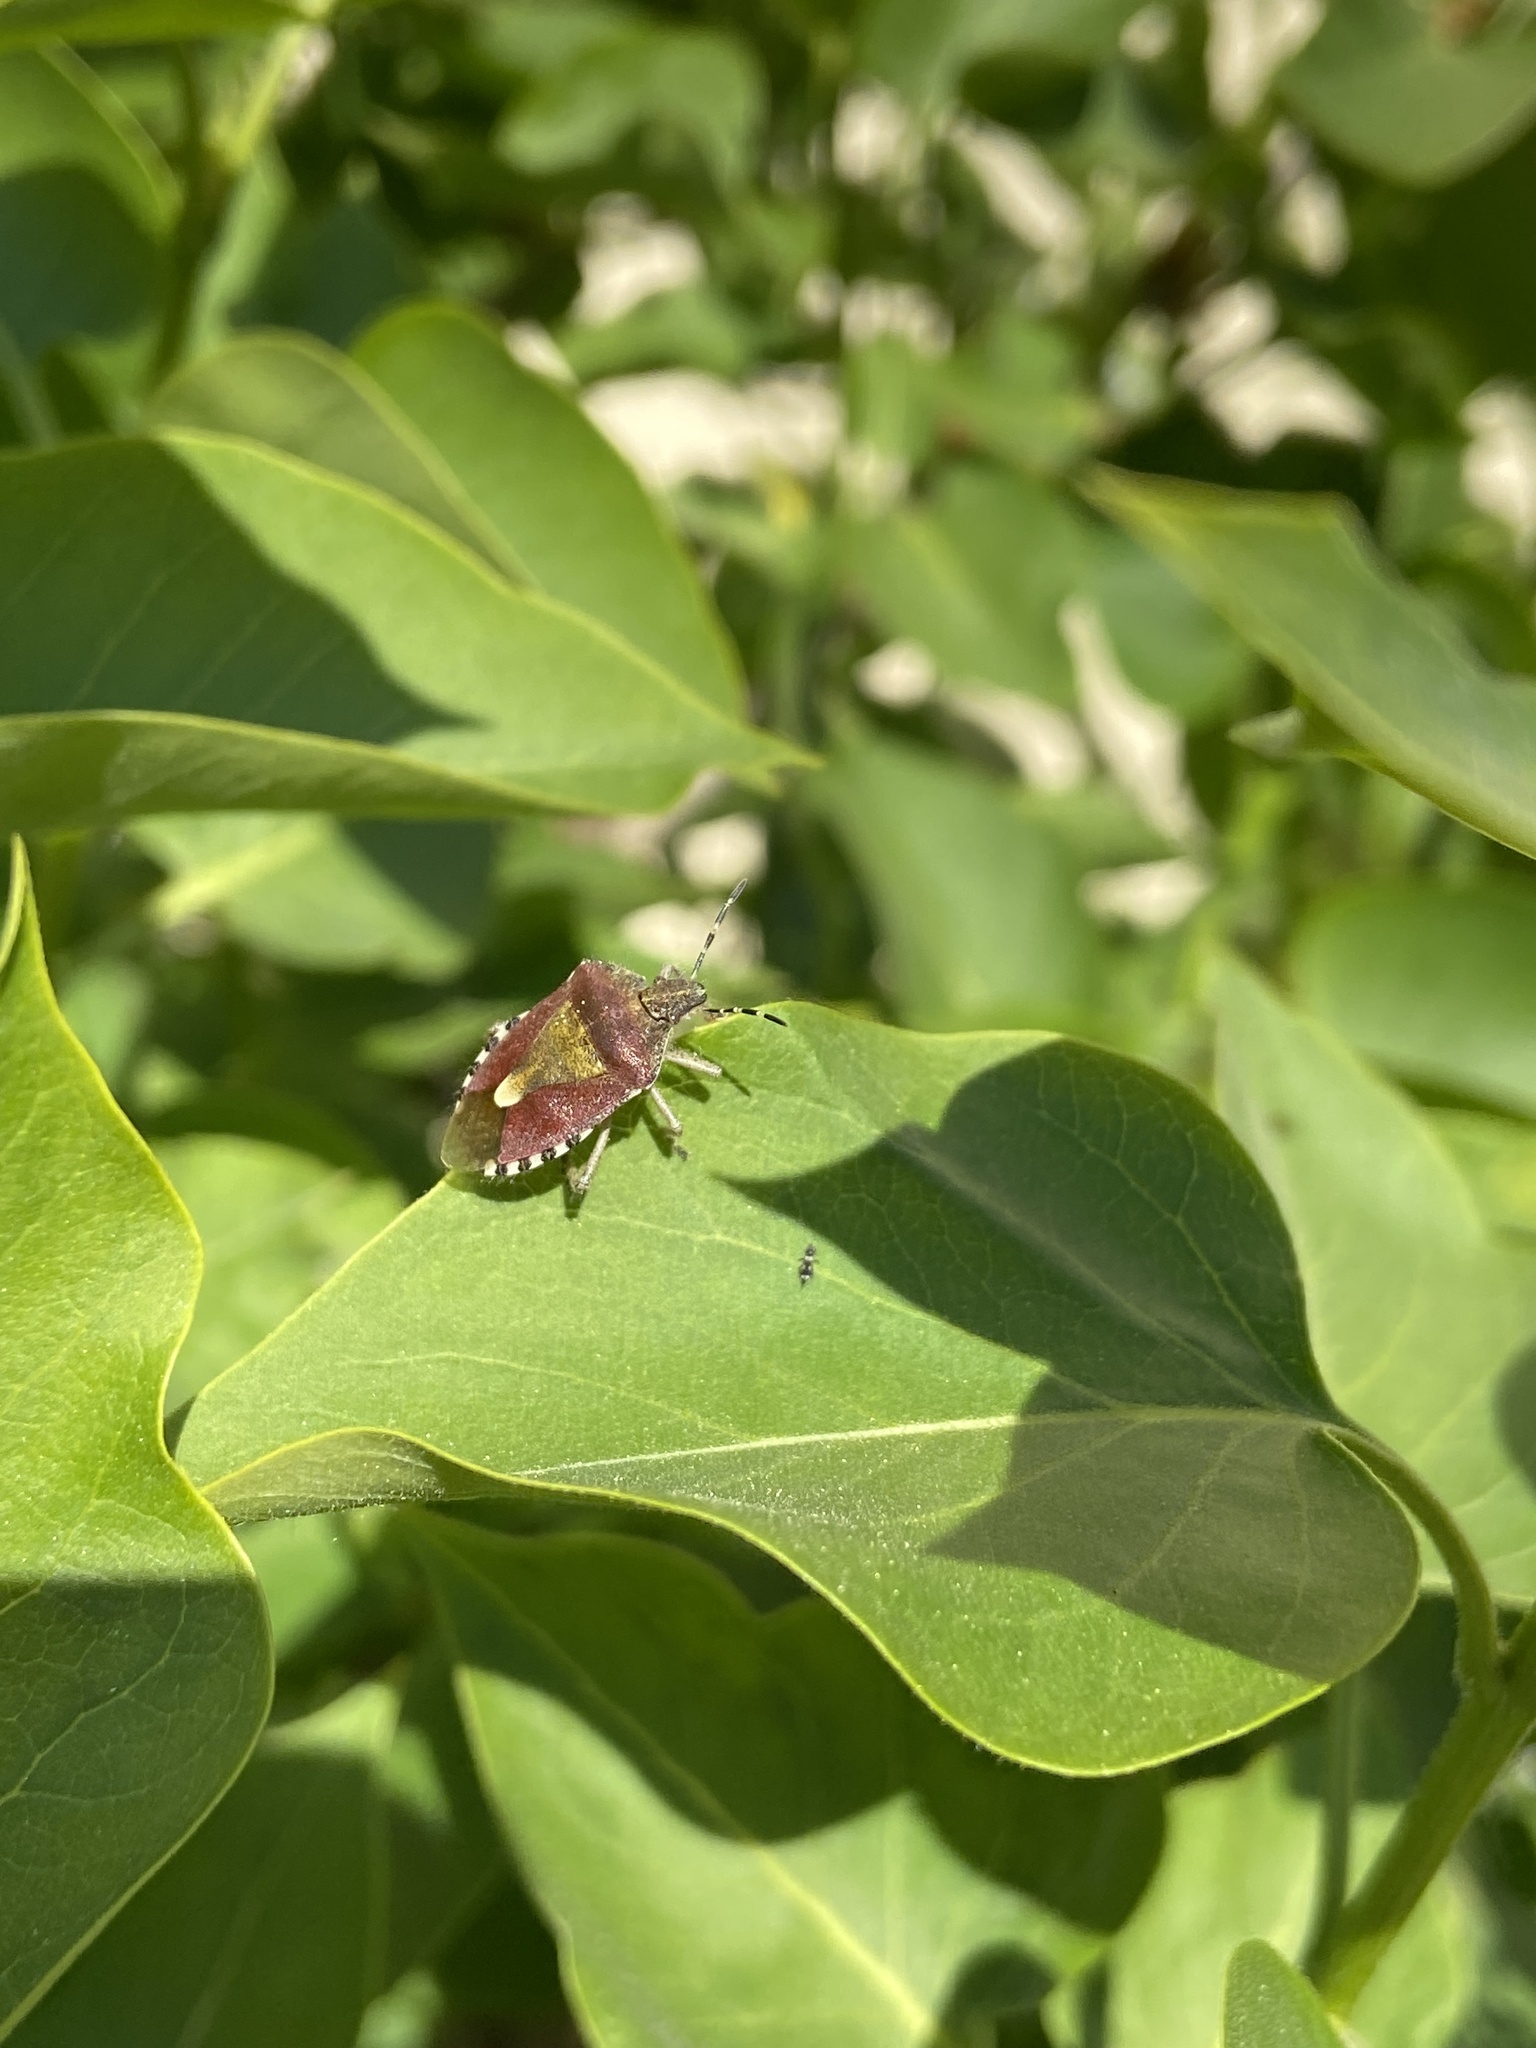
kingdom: Animalia
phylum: Arthropoda
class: Insecta
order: Hemiptera
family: Pentatomidae
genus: Dolycoris
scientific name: Dolycoris baccarum
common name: Sloe bug
